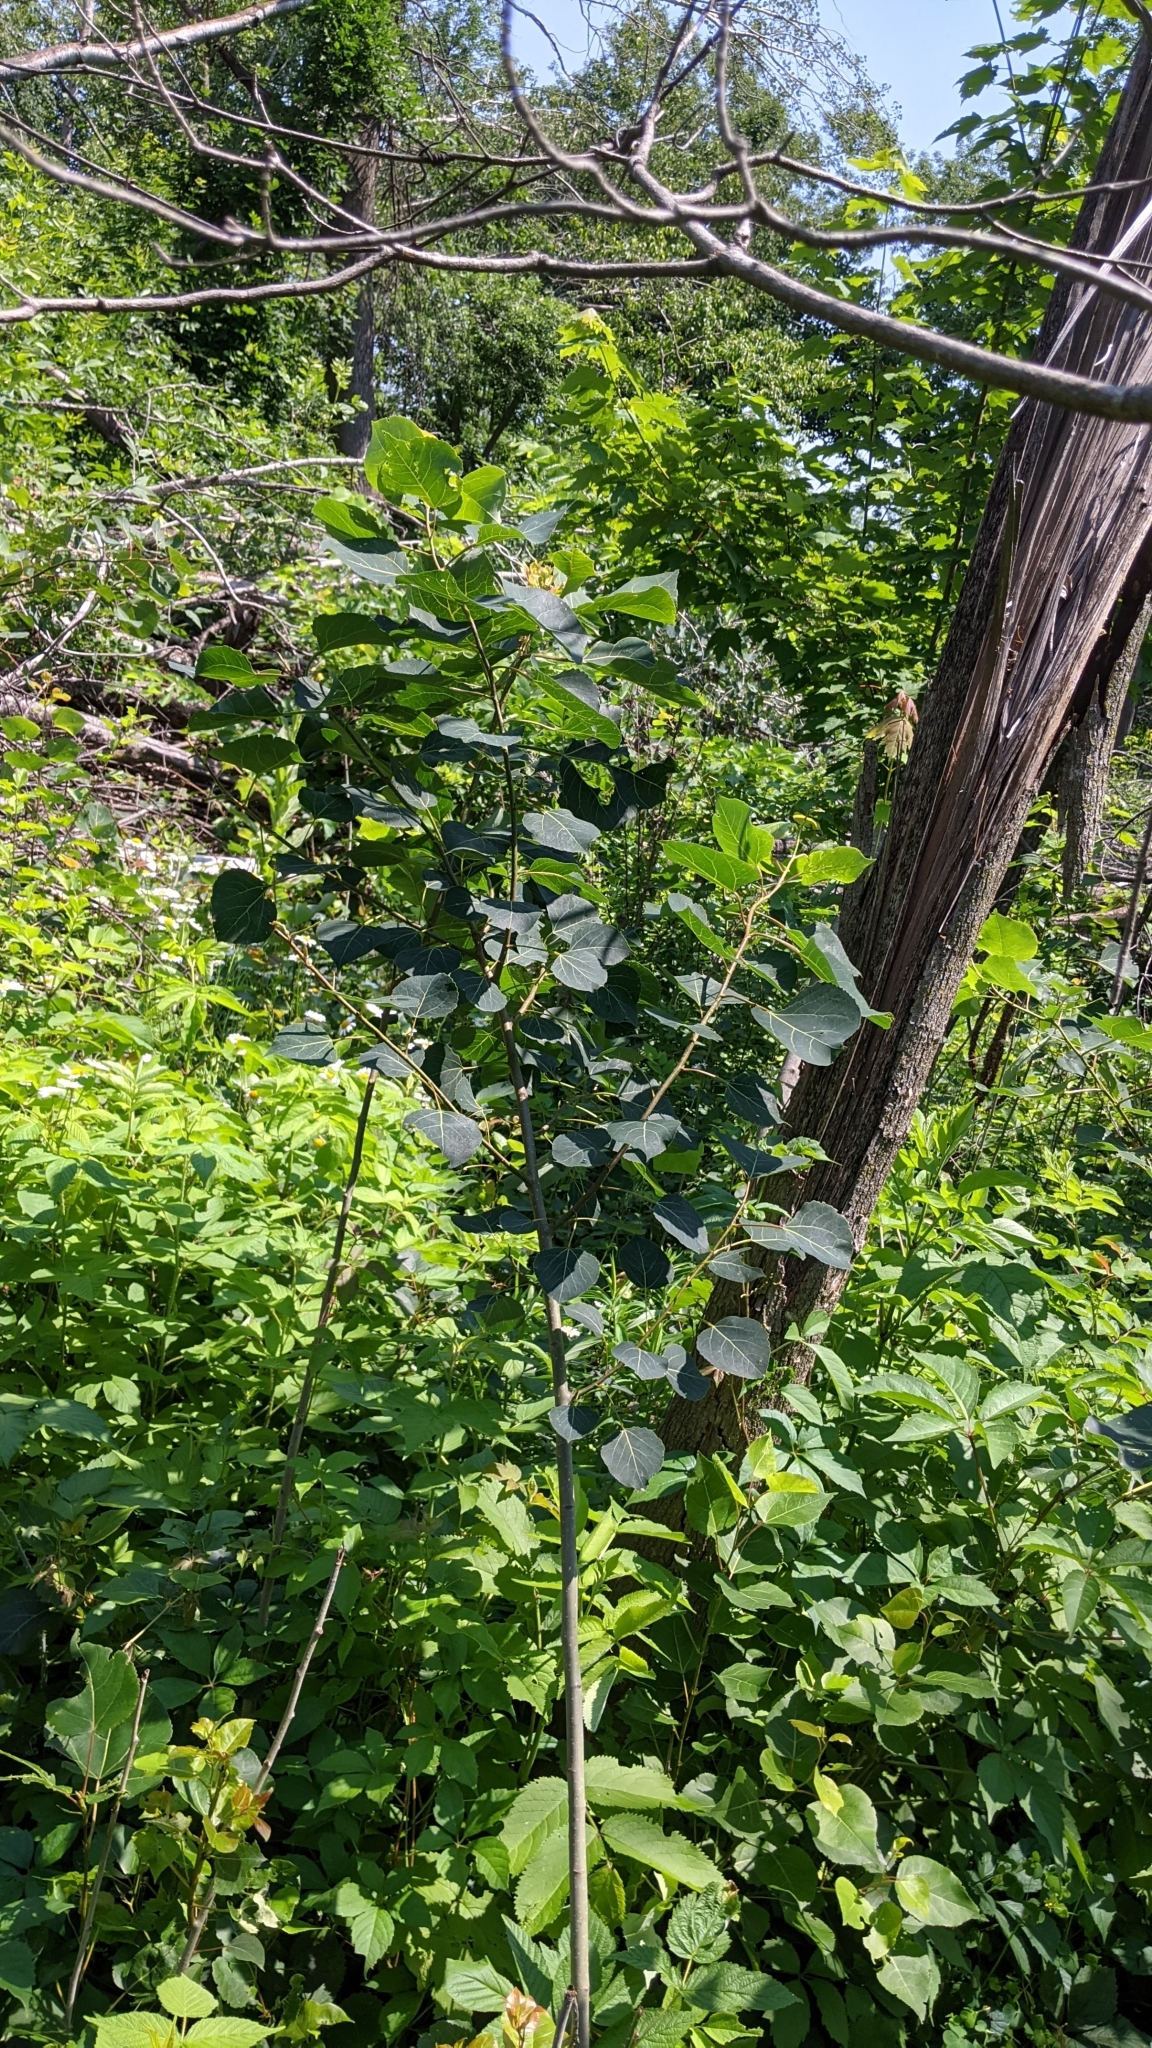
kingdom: Plantae
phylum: Tracheophyta
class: Magnoliopsida
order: Malpighiales
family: Salicaceae
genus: Populus
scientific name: Populus tremuloides
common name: Quaking aspen
